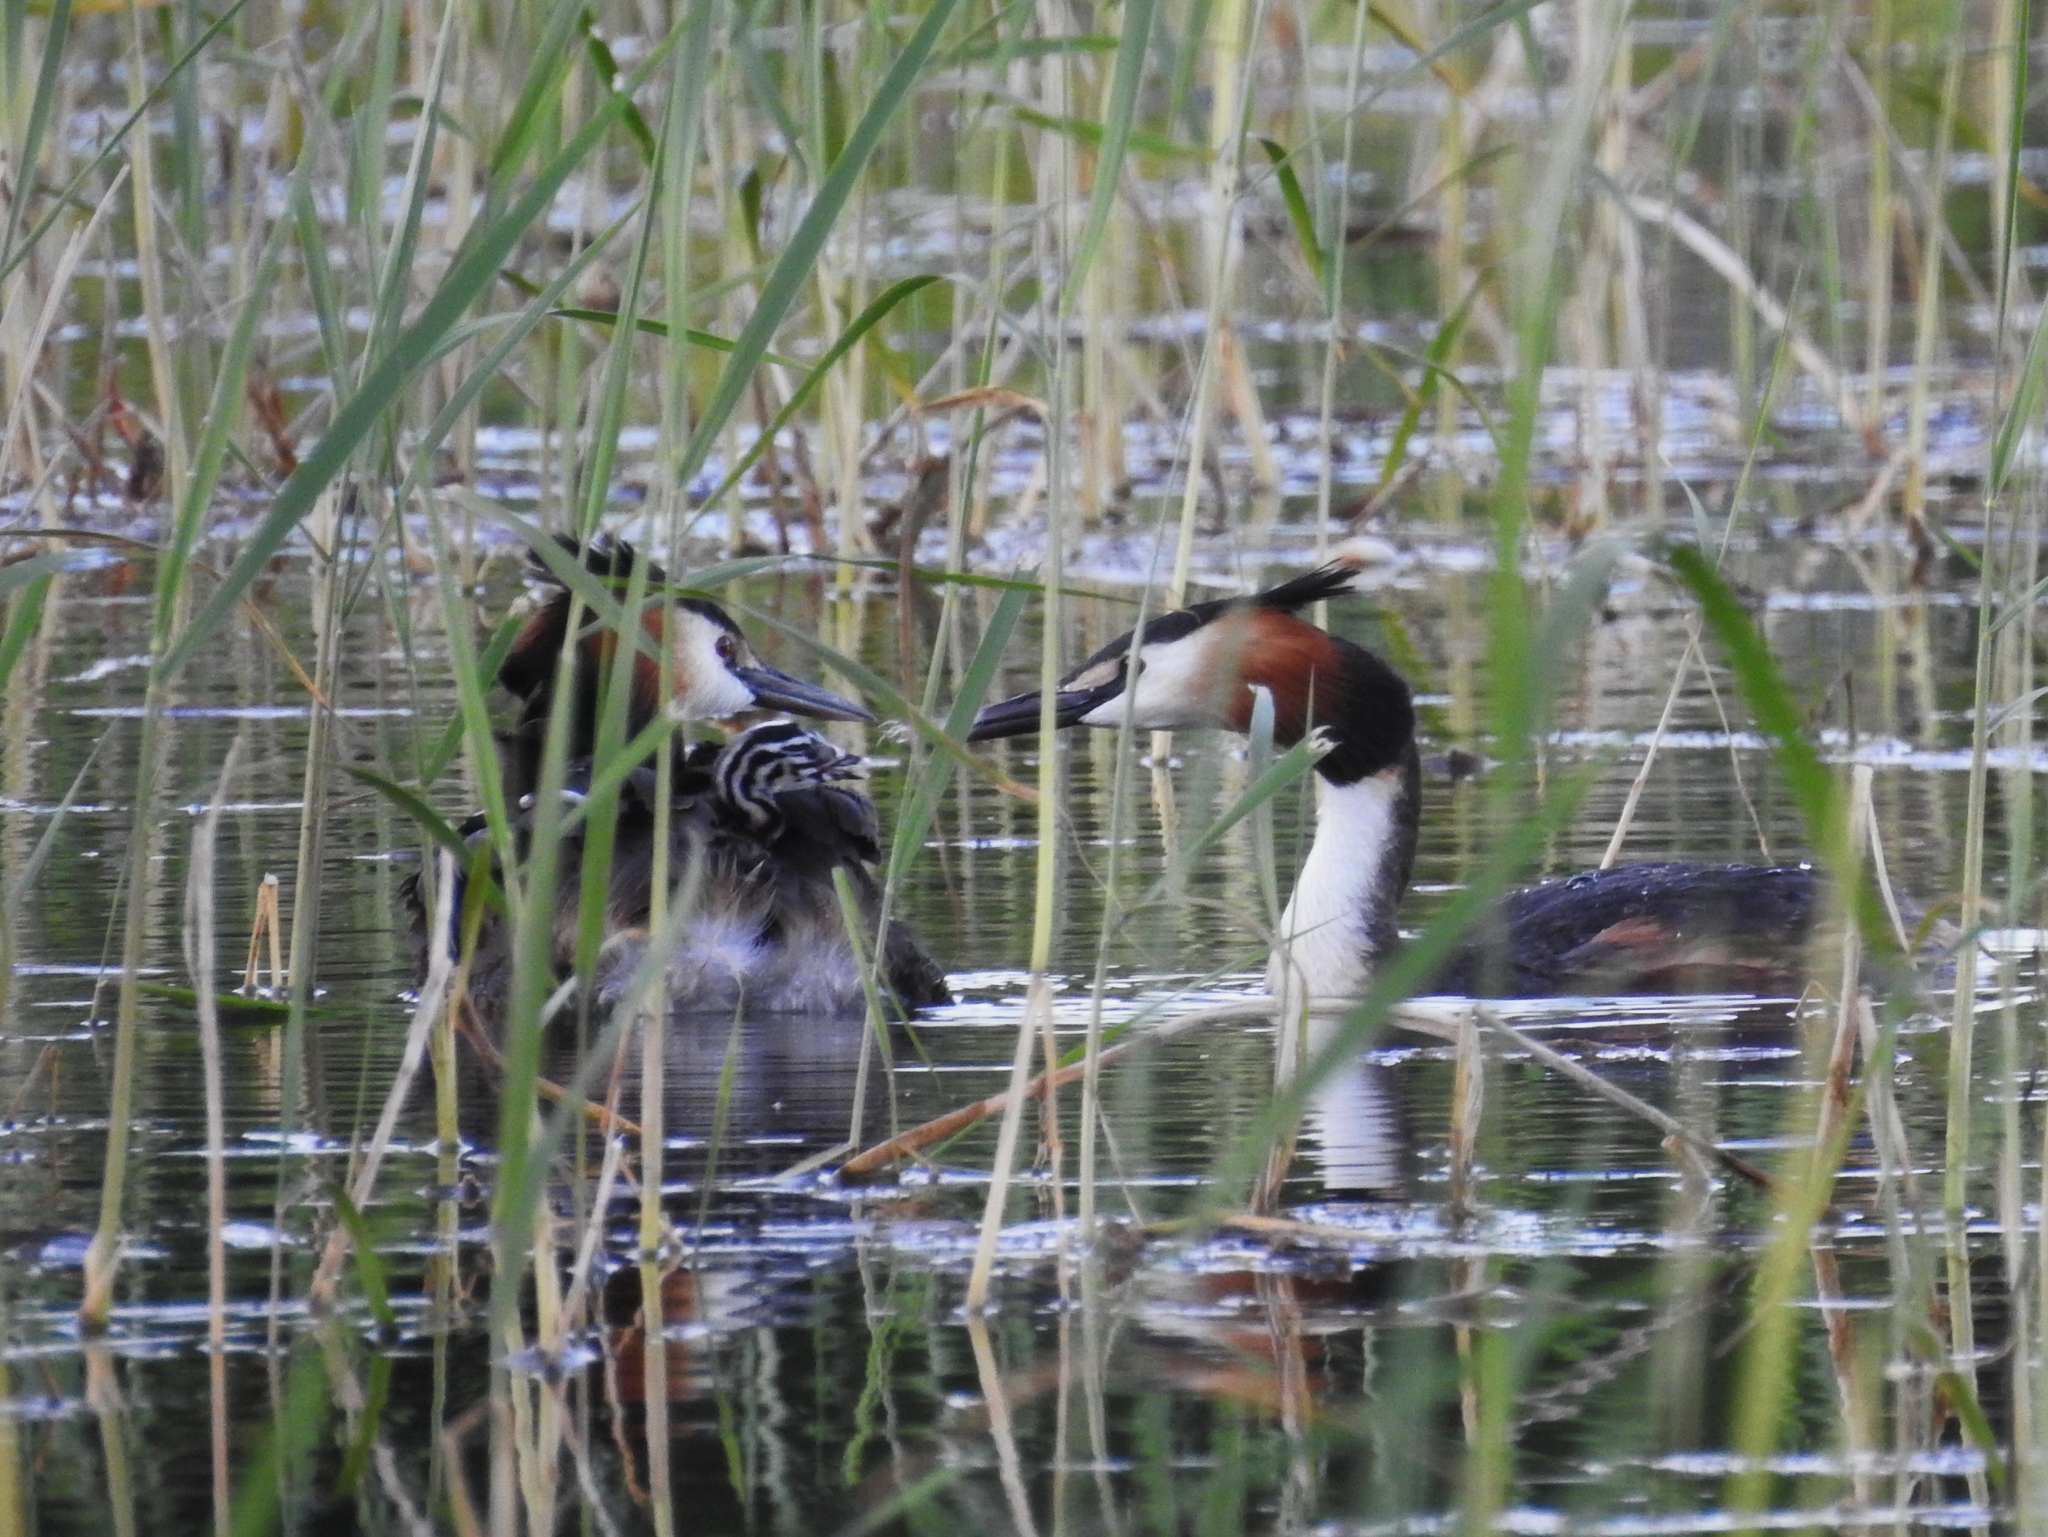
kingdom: Animalia
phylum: Chordata
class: Aves
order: Podicipediformes
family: Podicipedidae
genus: Podiceps
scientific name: Podiceps cristatus
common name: Great crested grebe
